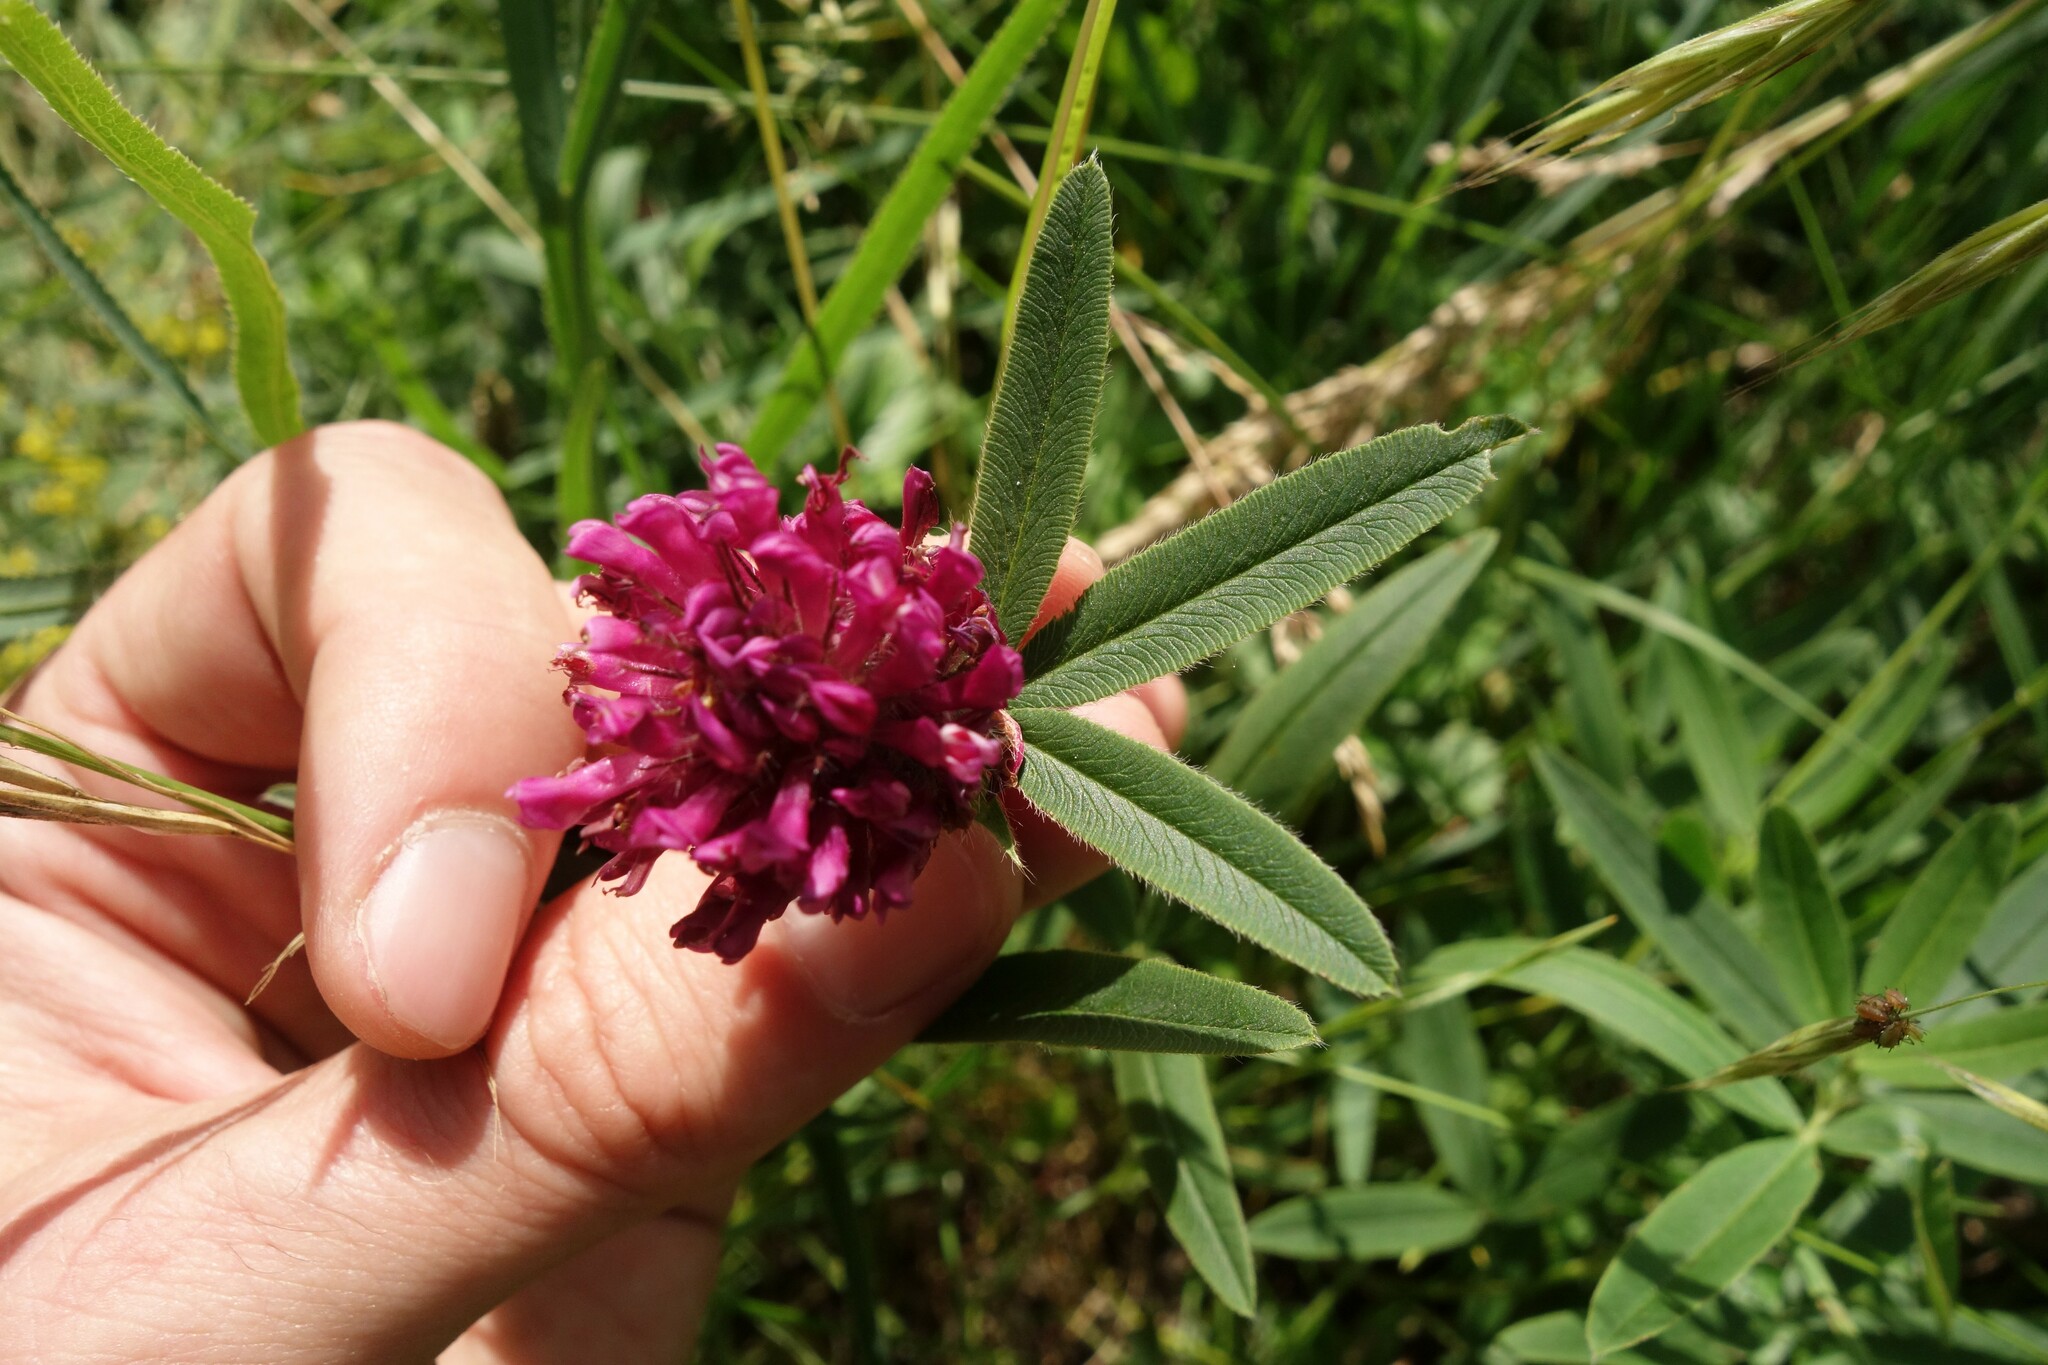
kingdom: Plantae
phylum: Tracheophyta
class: Magnoliopsida
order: Fabales
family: Fabaceae
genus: Trifolium
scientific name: Trifolium alpestre
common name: Owl-head clover
